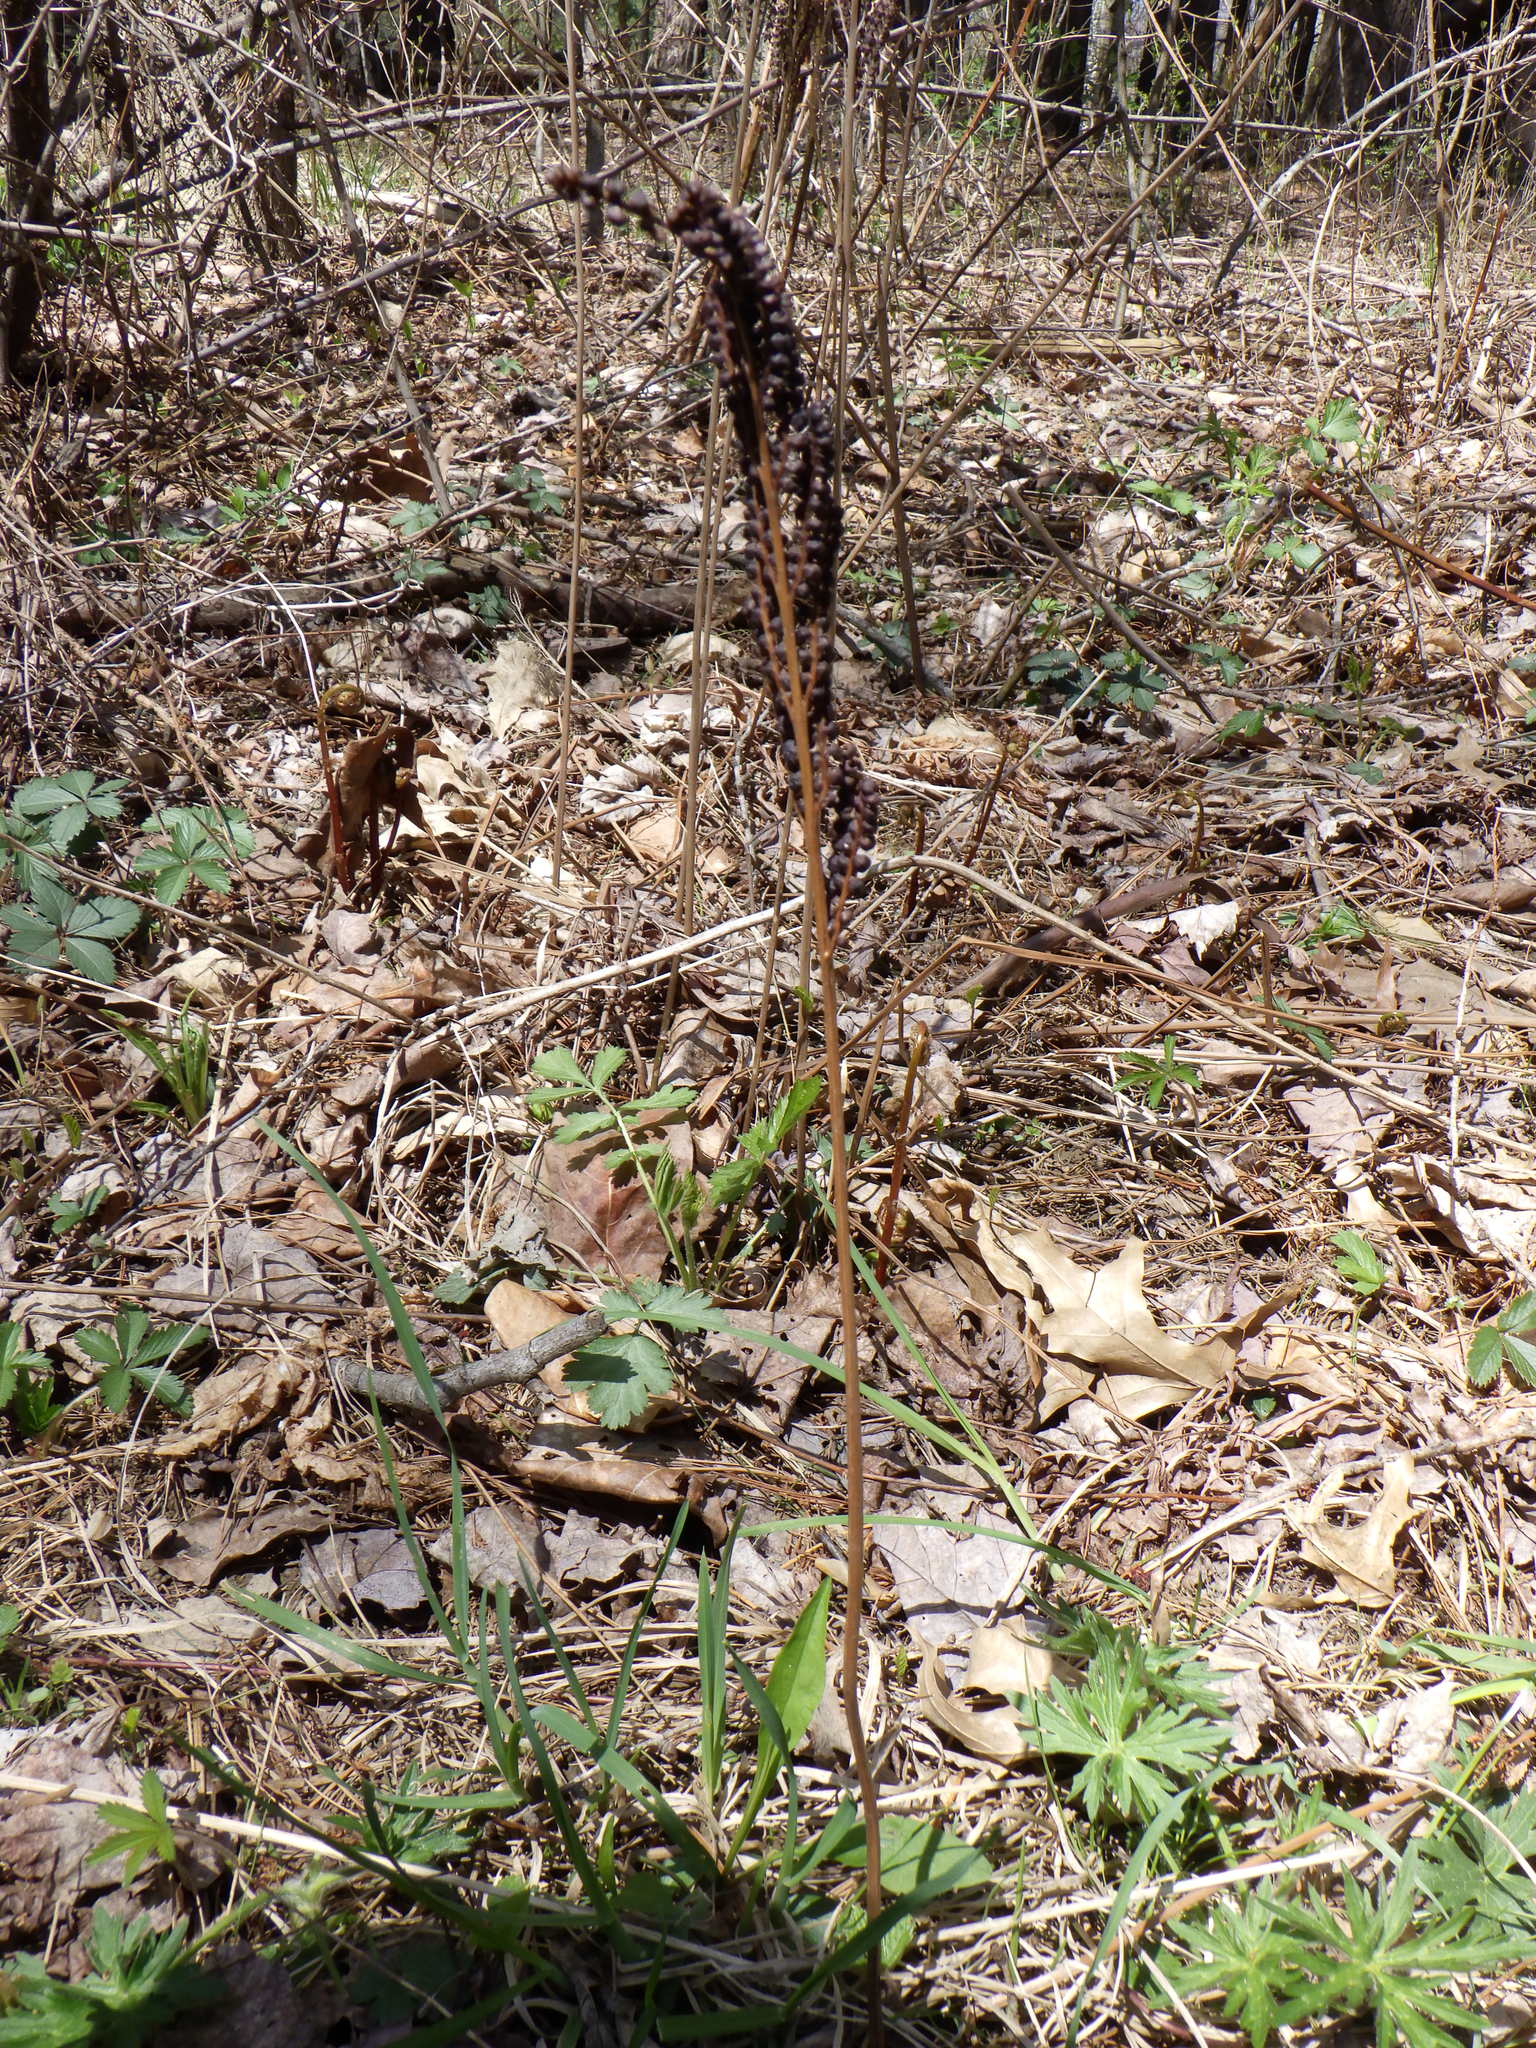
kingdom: Plantae
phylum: Tracheophyta
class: Polypodiopsida
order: Polypodiales
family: Onocleaceae
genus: Onoclea
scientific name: Onoclea sensibilis
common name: Sensitive fern
